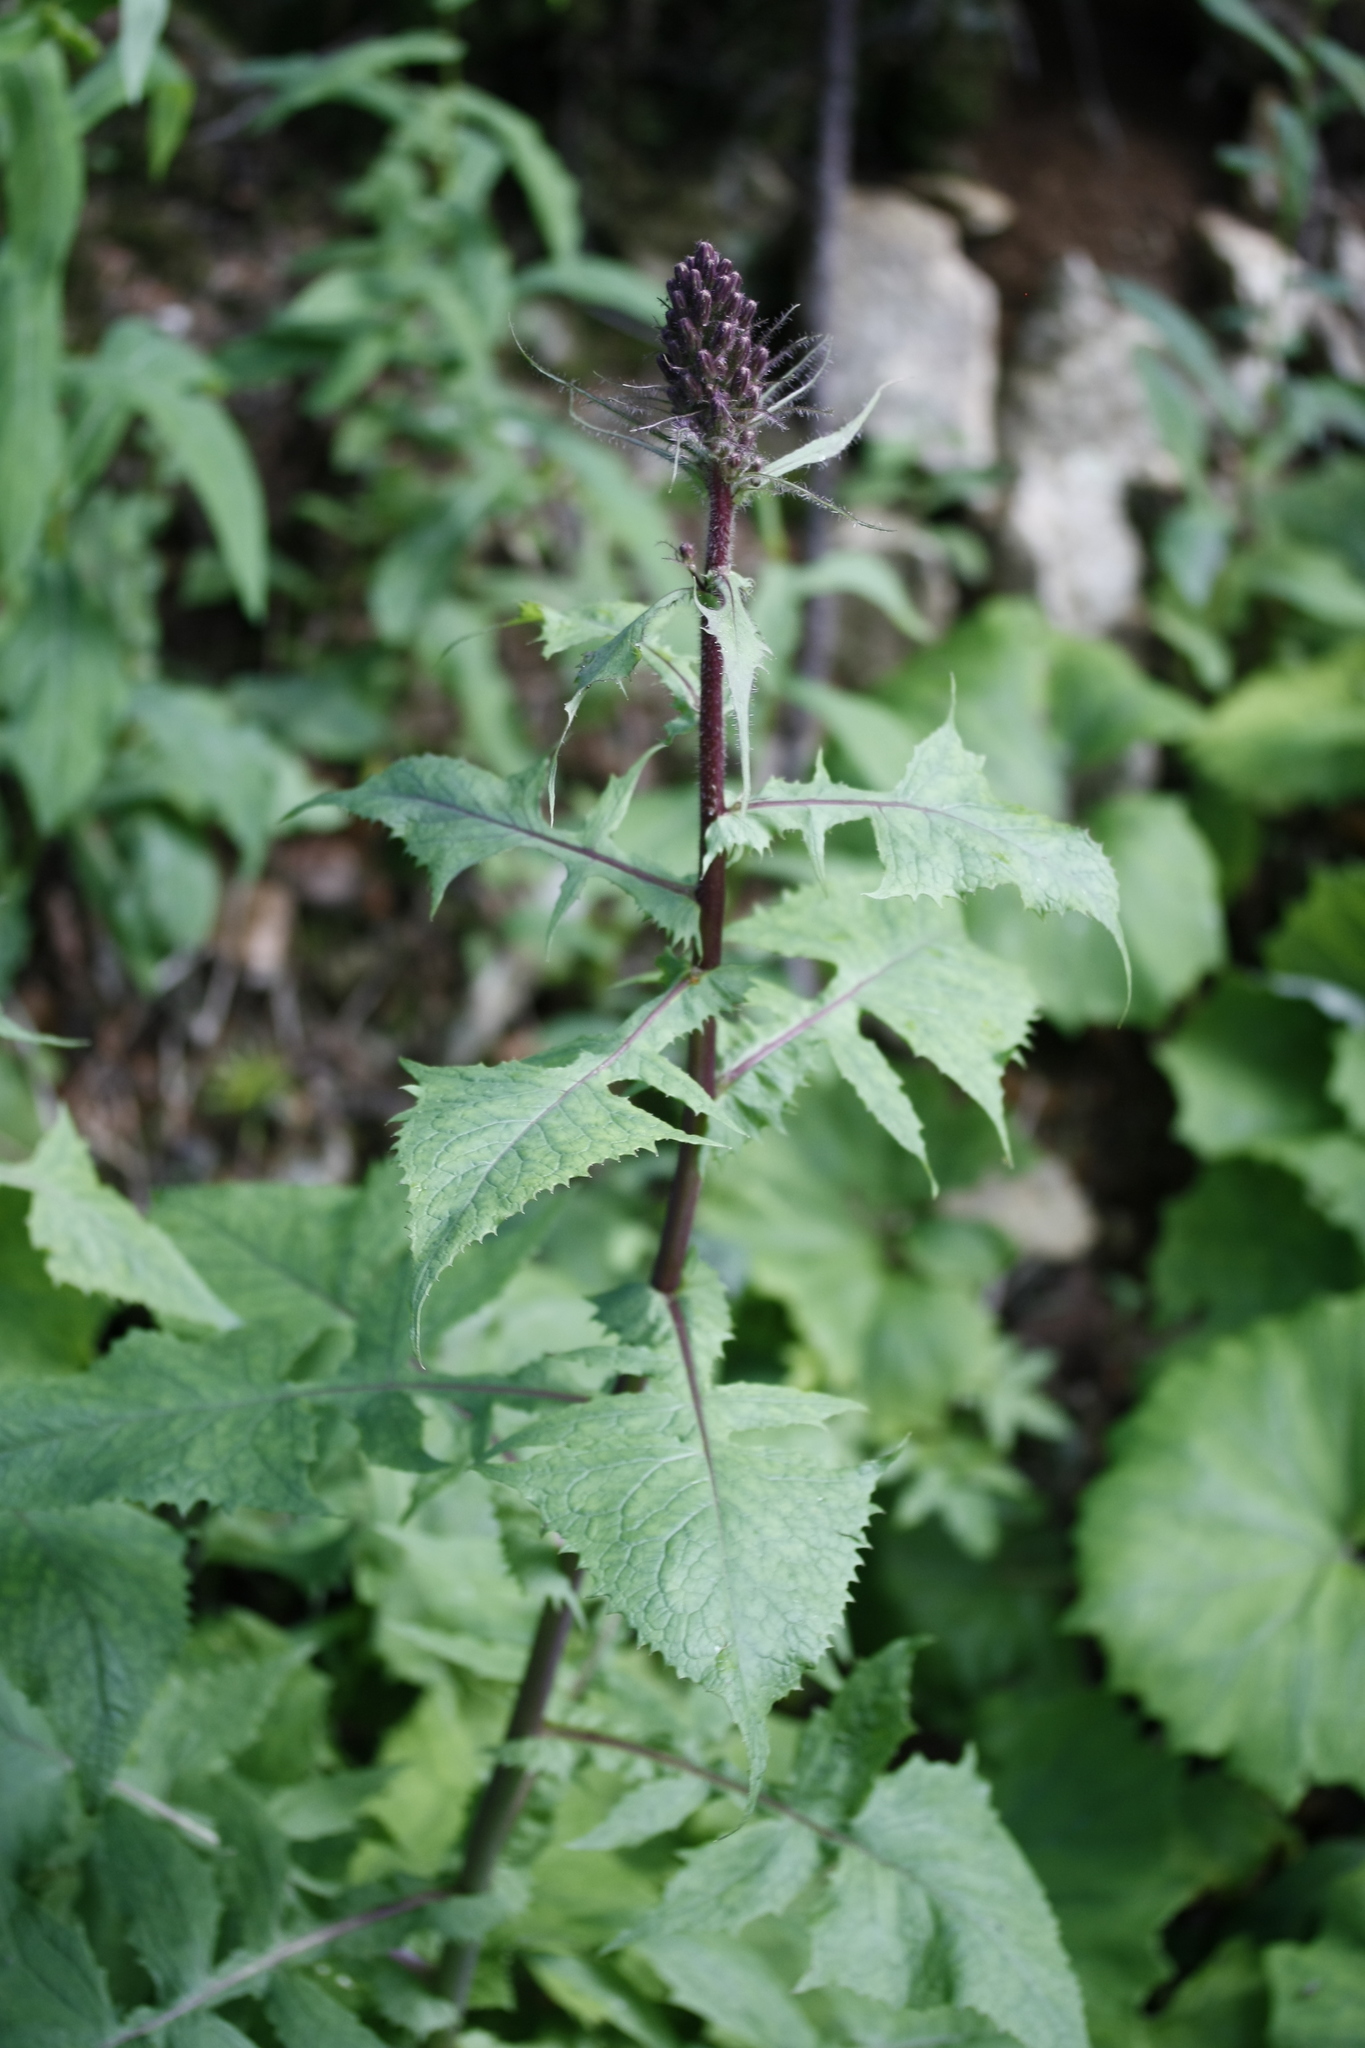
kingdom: Plantae
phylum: Tracheophyta
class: Magnoliopsida
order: Asterales
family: Asteraceae
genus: Cicerbita
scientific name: Cicerbita alpina
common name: Alpine blue-sow-thistle
